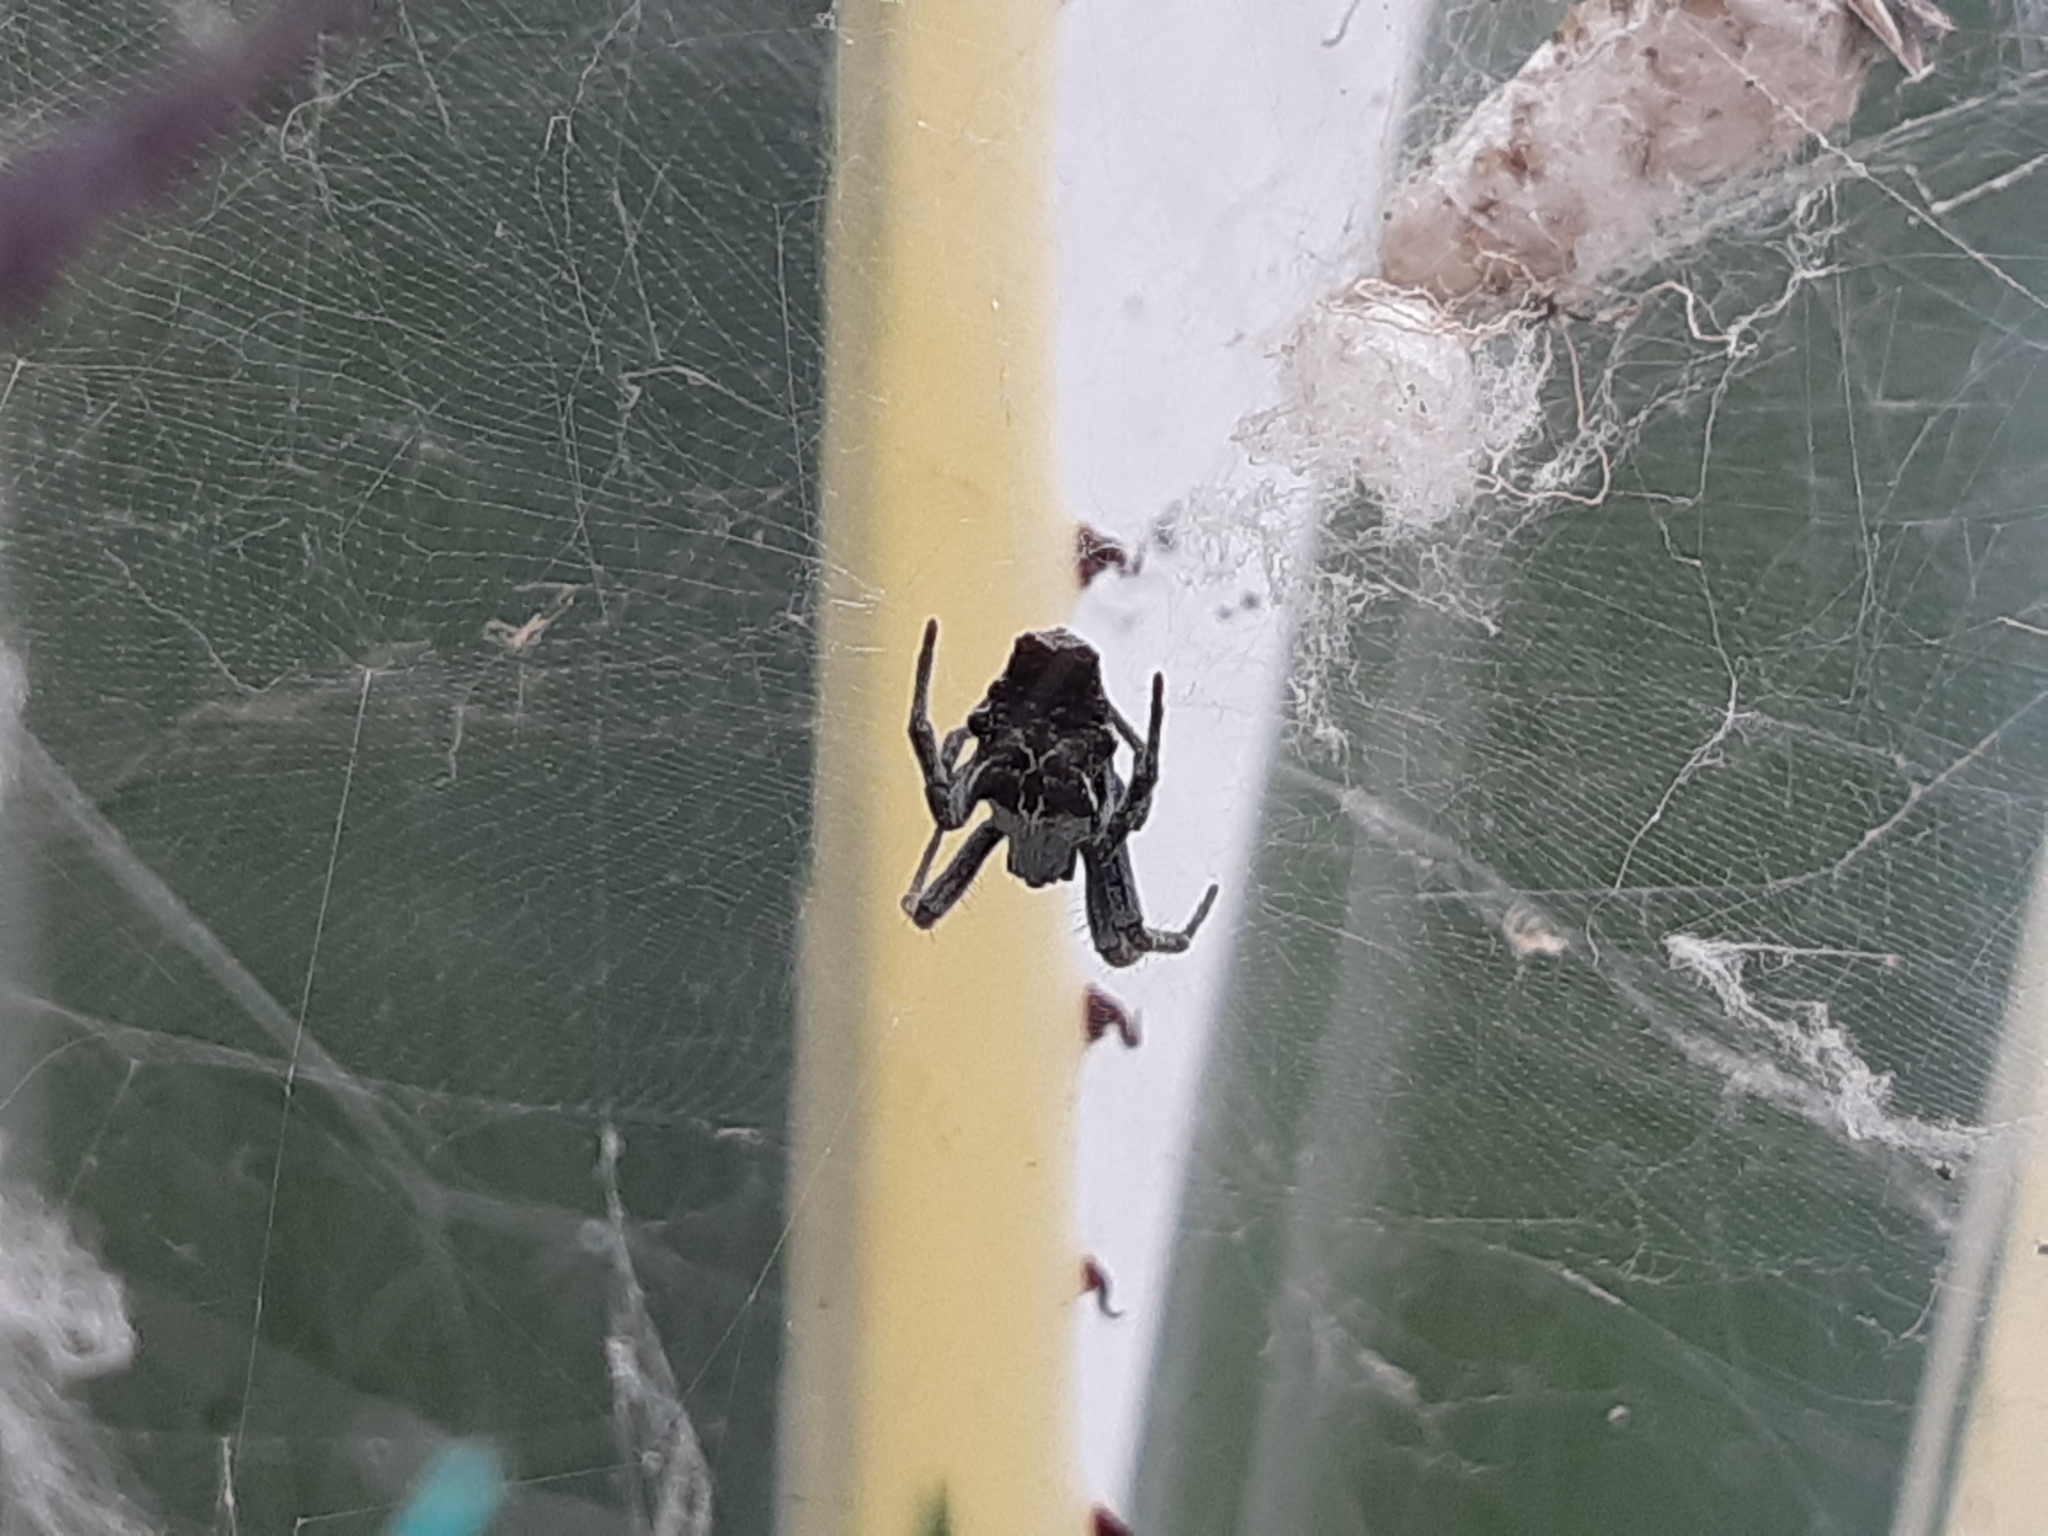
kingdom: Animalia
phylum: Arthropoda
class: Arachnida
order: Araneae
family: Araneidae
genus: Cyrtophora
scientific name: Cyrtophora citricola
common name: Orb weavers
